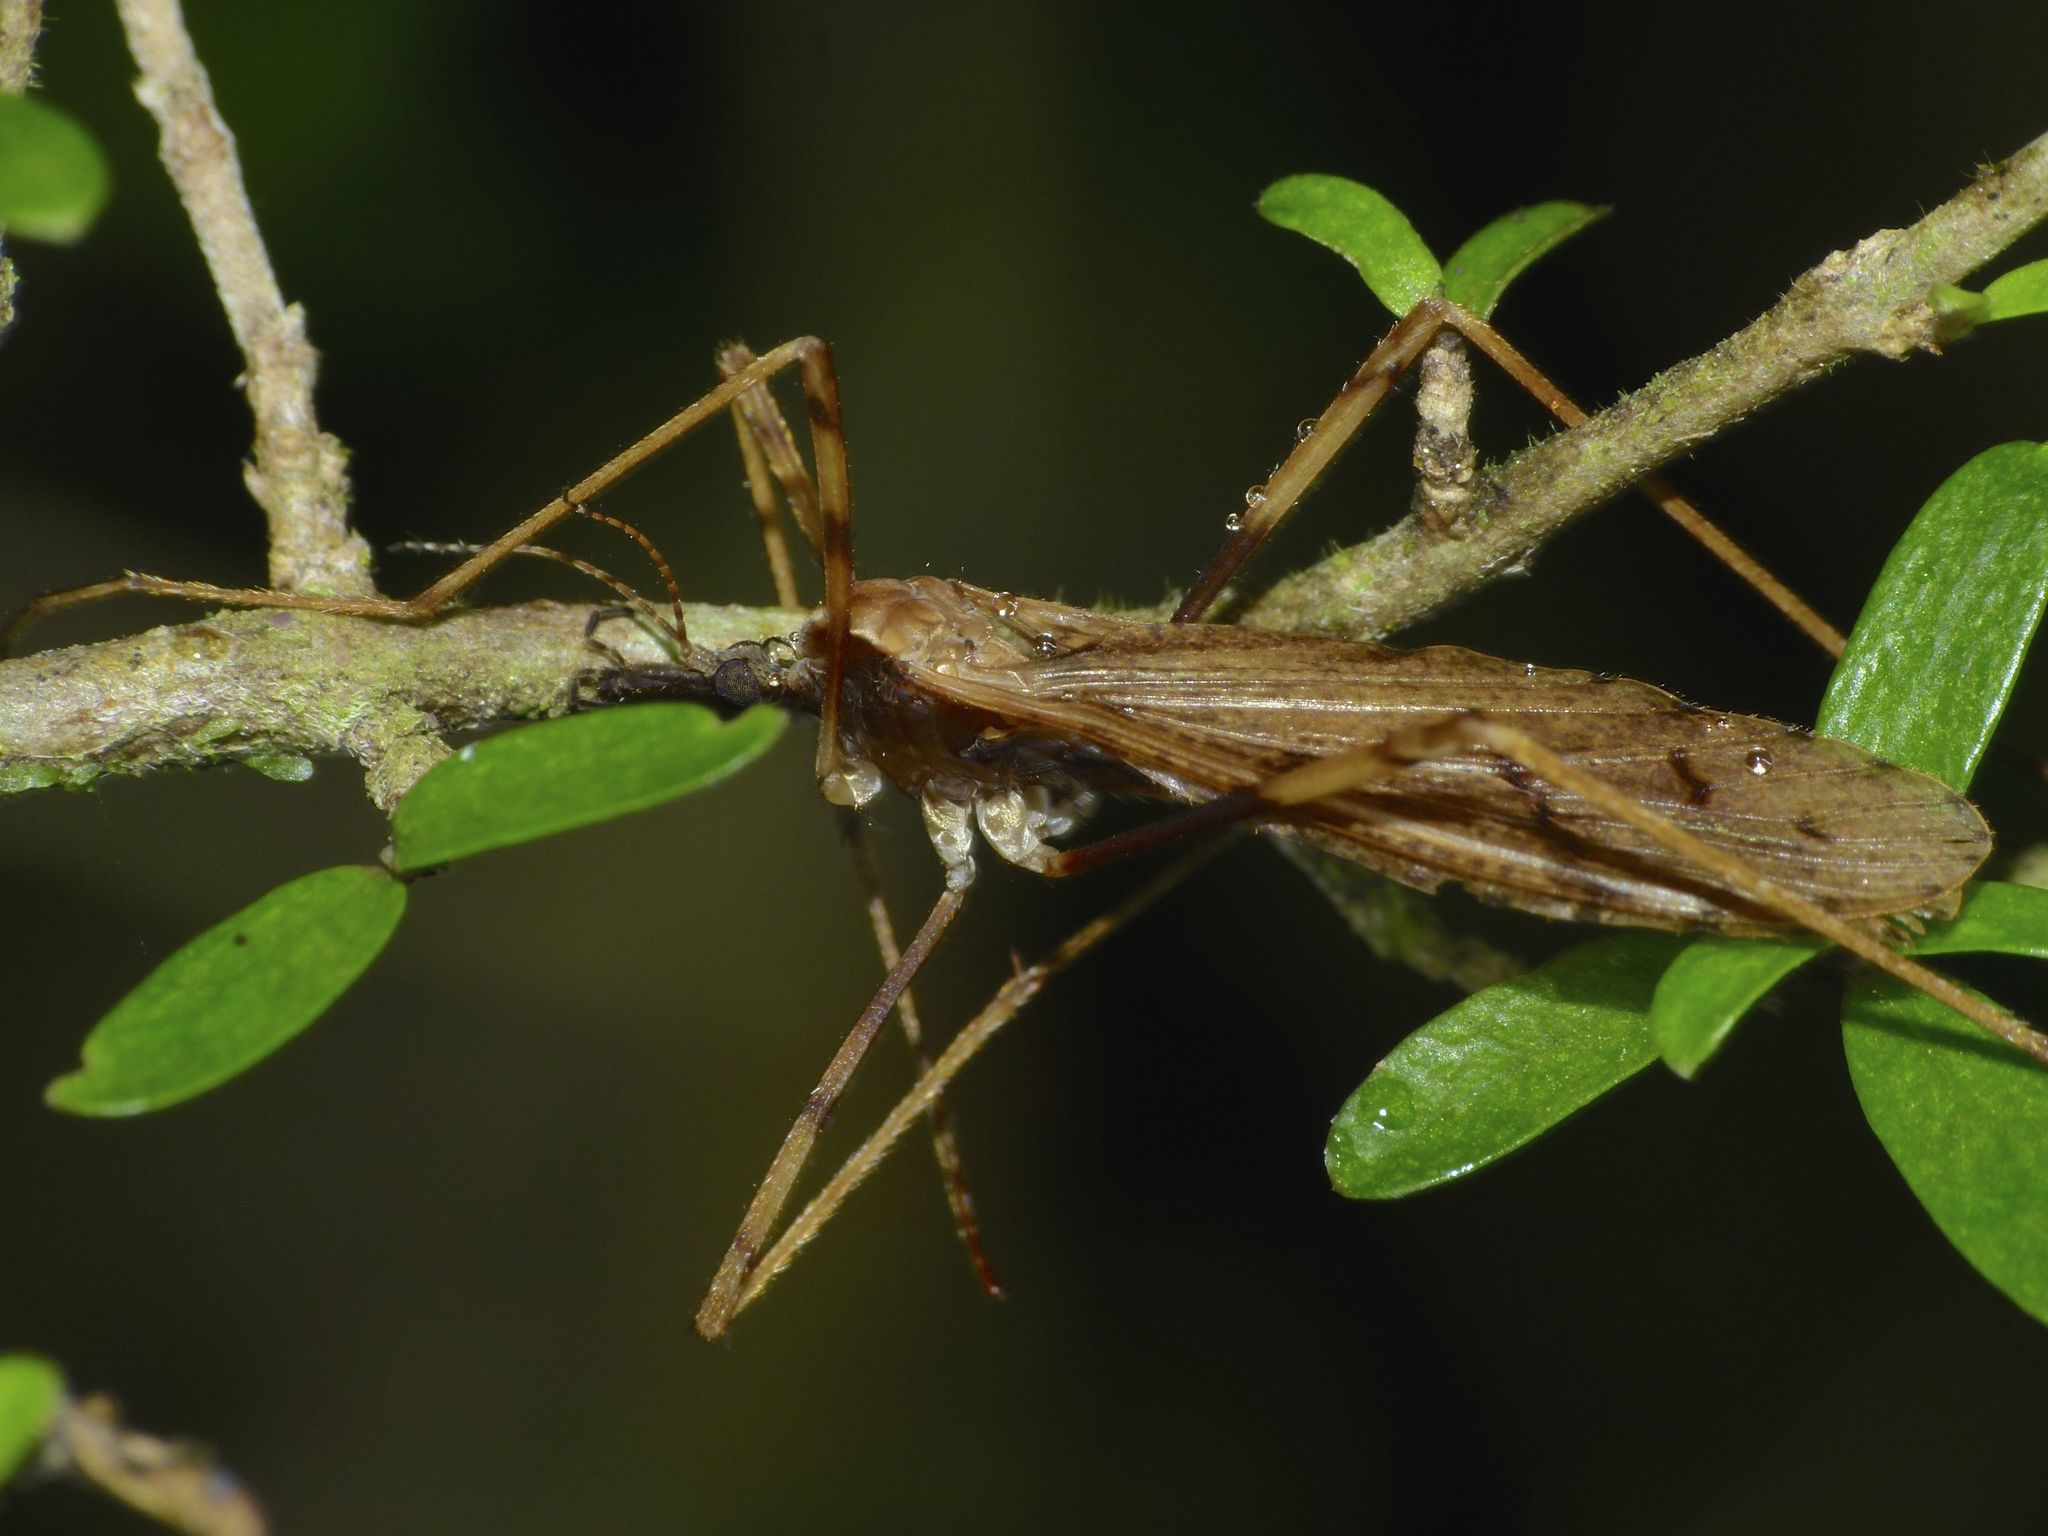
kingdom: Animalia
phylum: Arthropoda
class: Insecta
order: Diptera
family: Limoniidae
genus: Rhamphophila
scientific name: Rhamphophila sinistra
